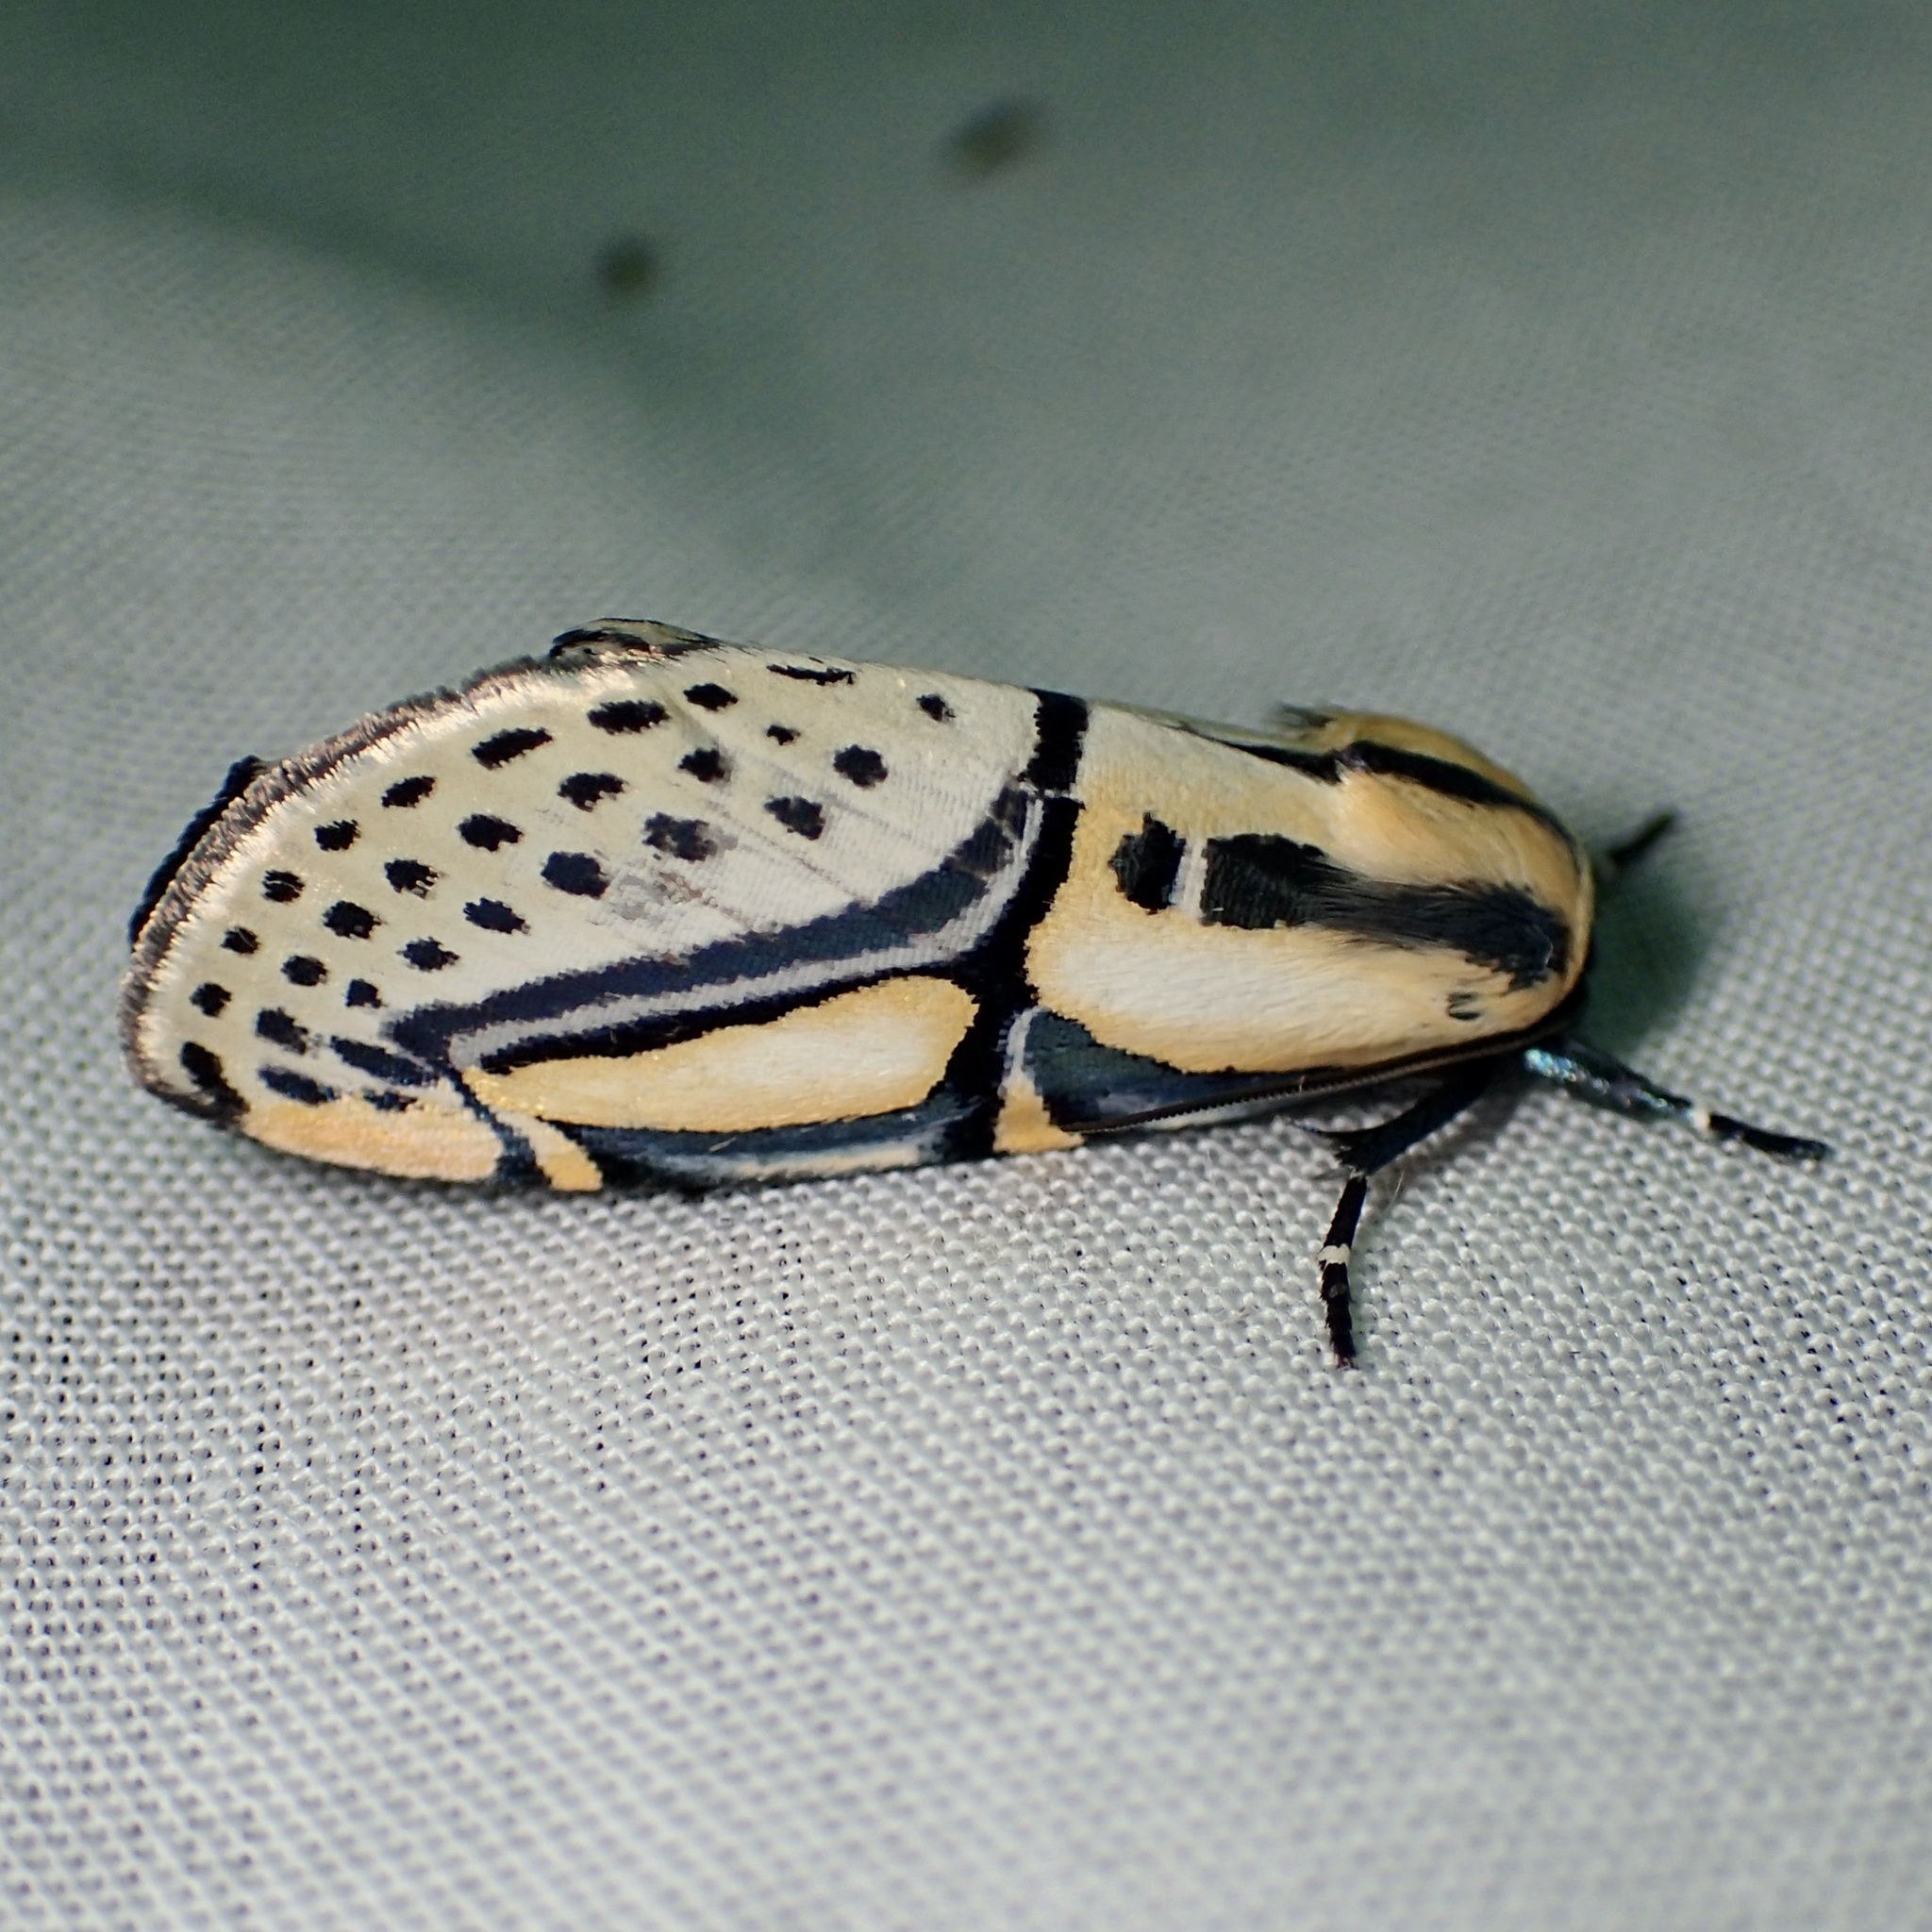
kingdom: Animalia
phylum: Arthropoda
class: Insecta
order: Lepidoptera
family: Erebidae
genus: Diphthera
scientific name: Diphthera festiva
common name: Hieroglyphic moth
